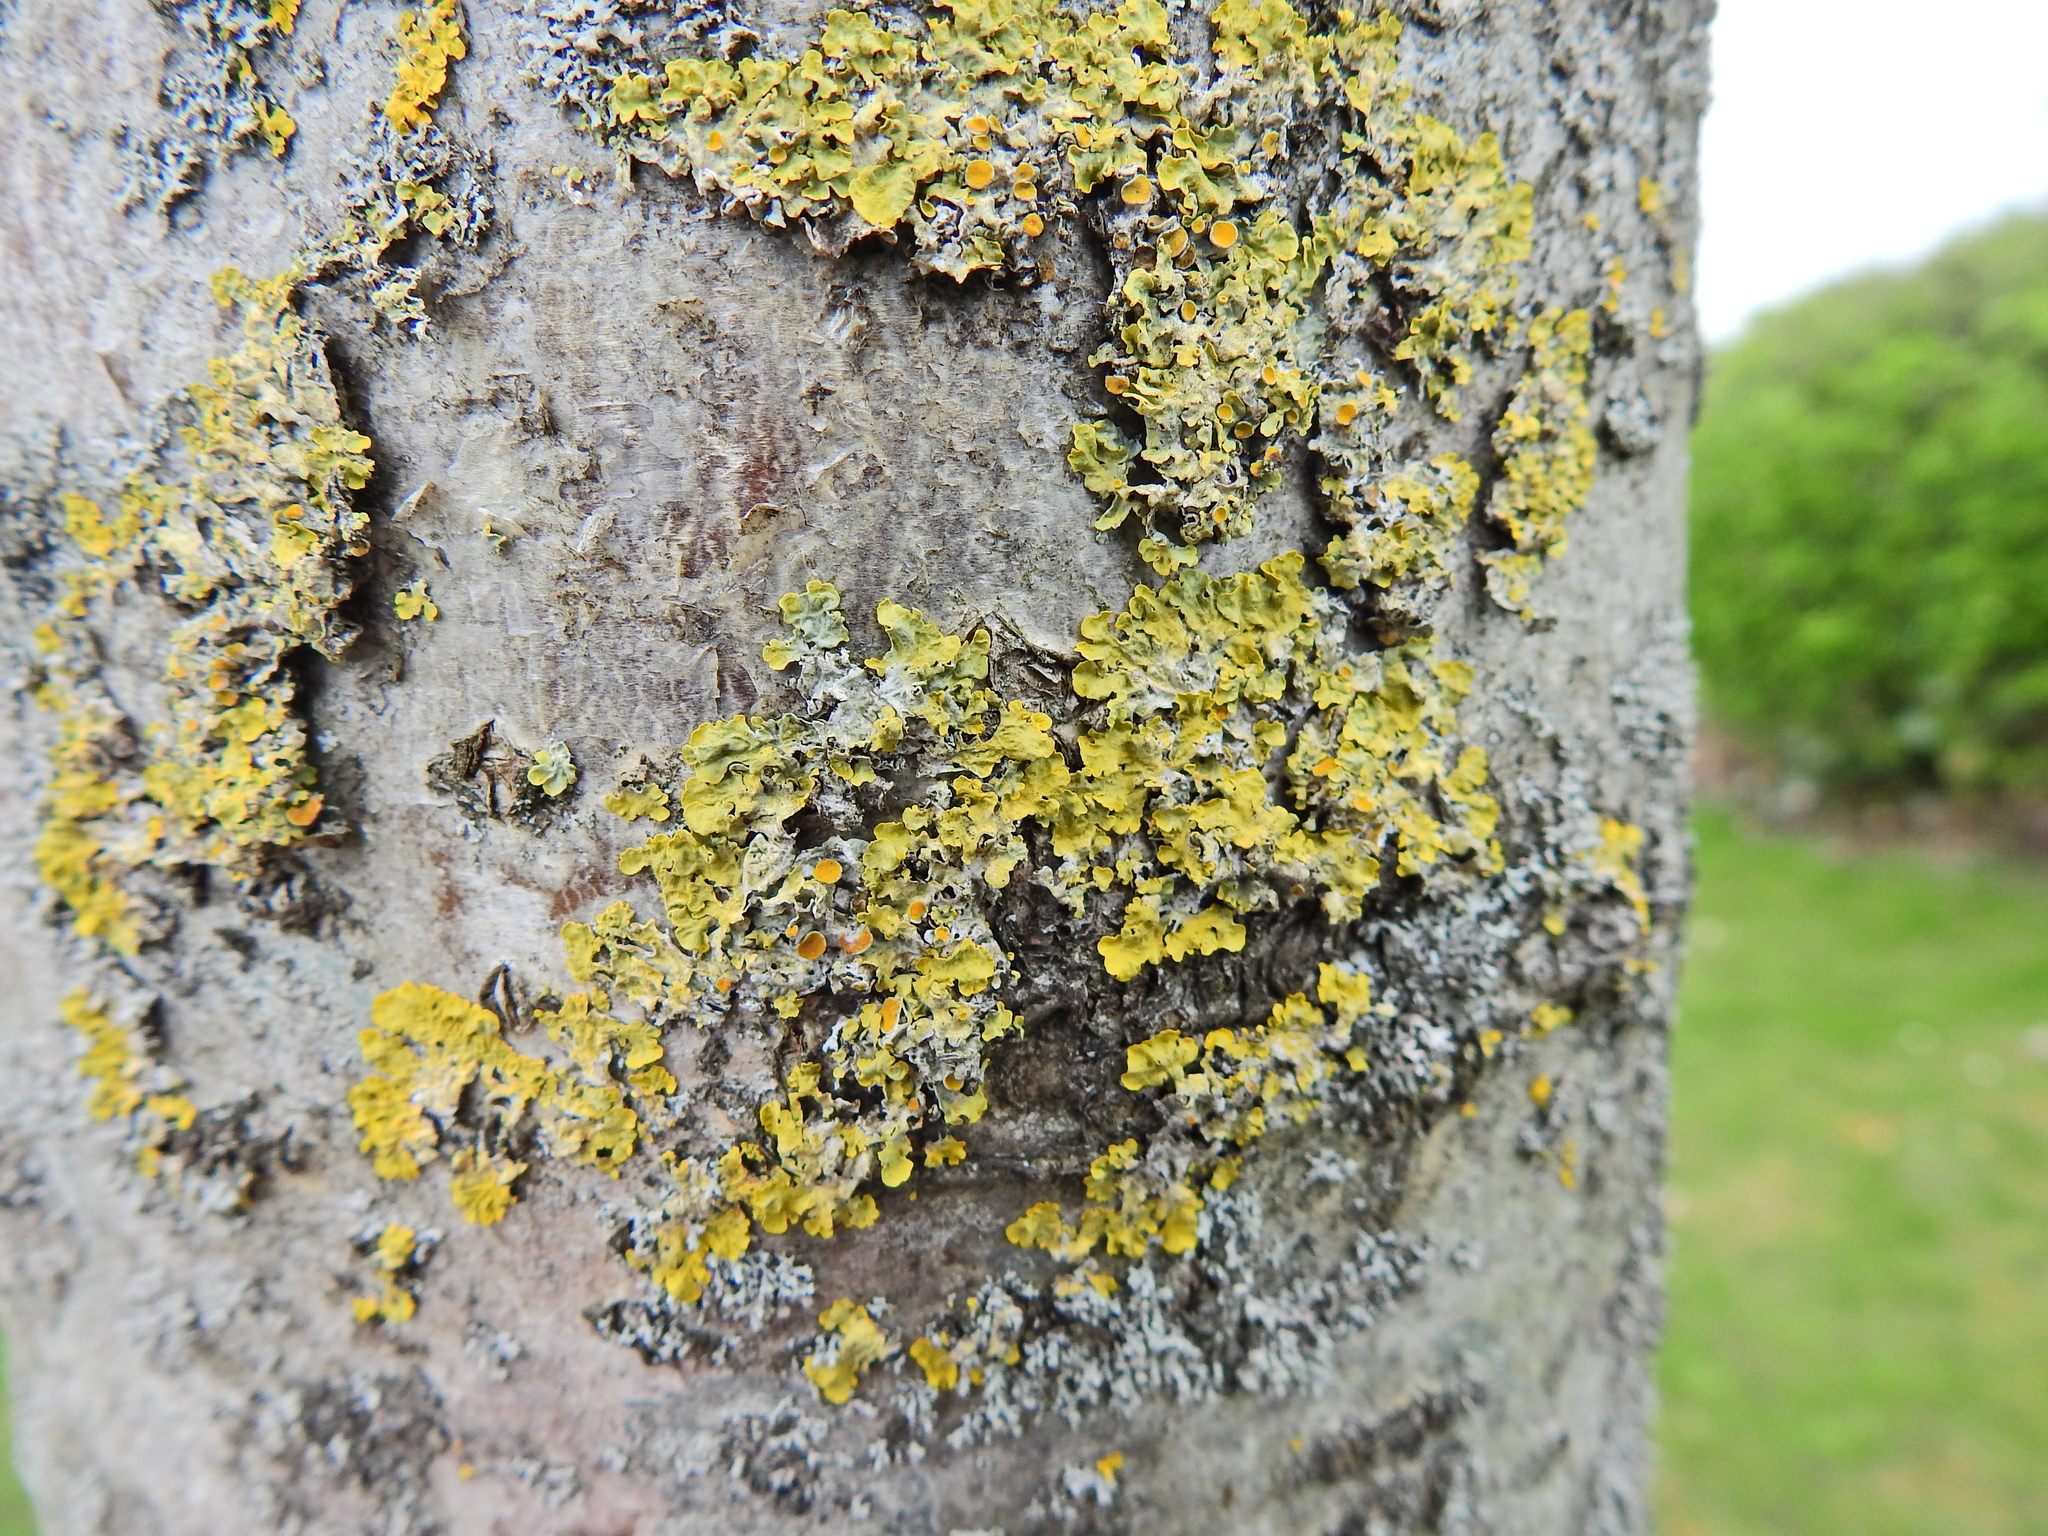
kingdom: Fungi
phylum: Ascomycota
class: Lecanoromycetes
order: Teloschistales
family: Teloschistaceae
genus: Xanthoria
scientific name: Xanthoria parietina
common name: Common orange lichen
